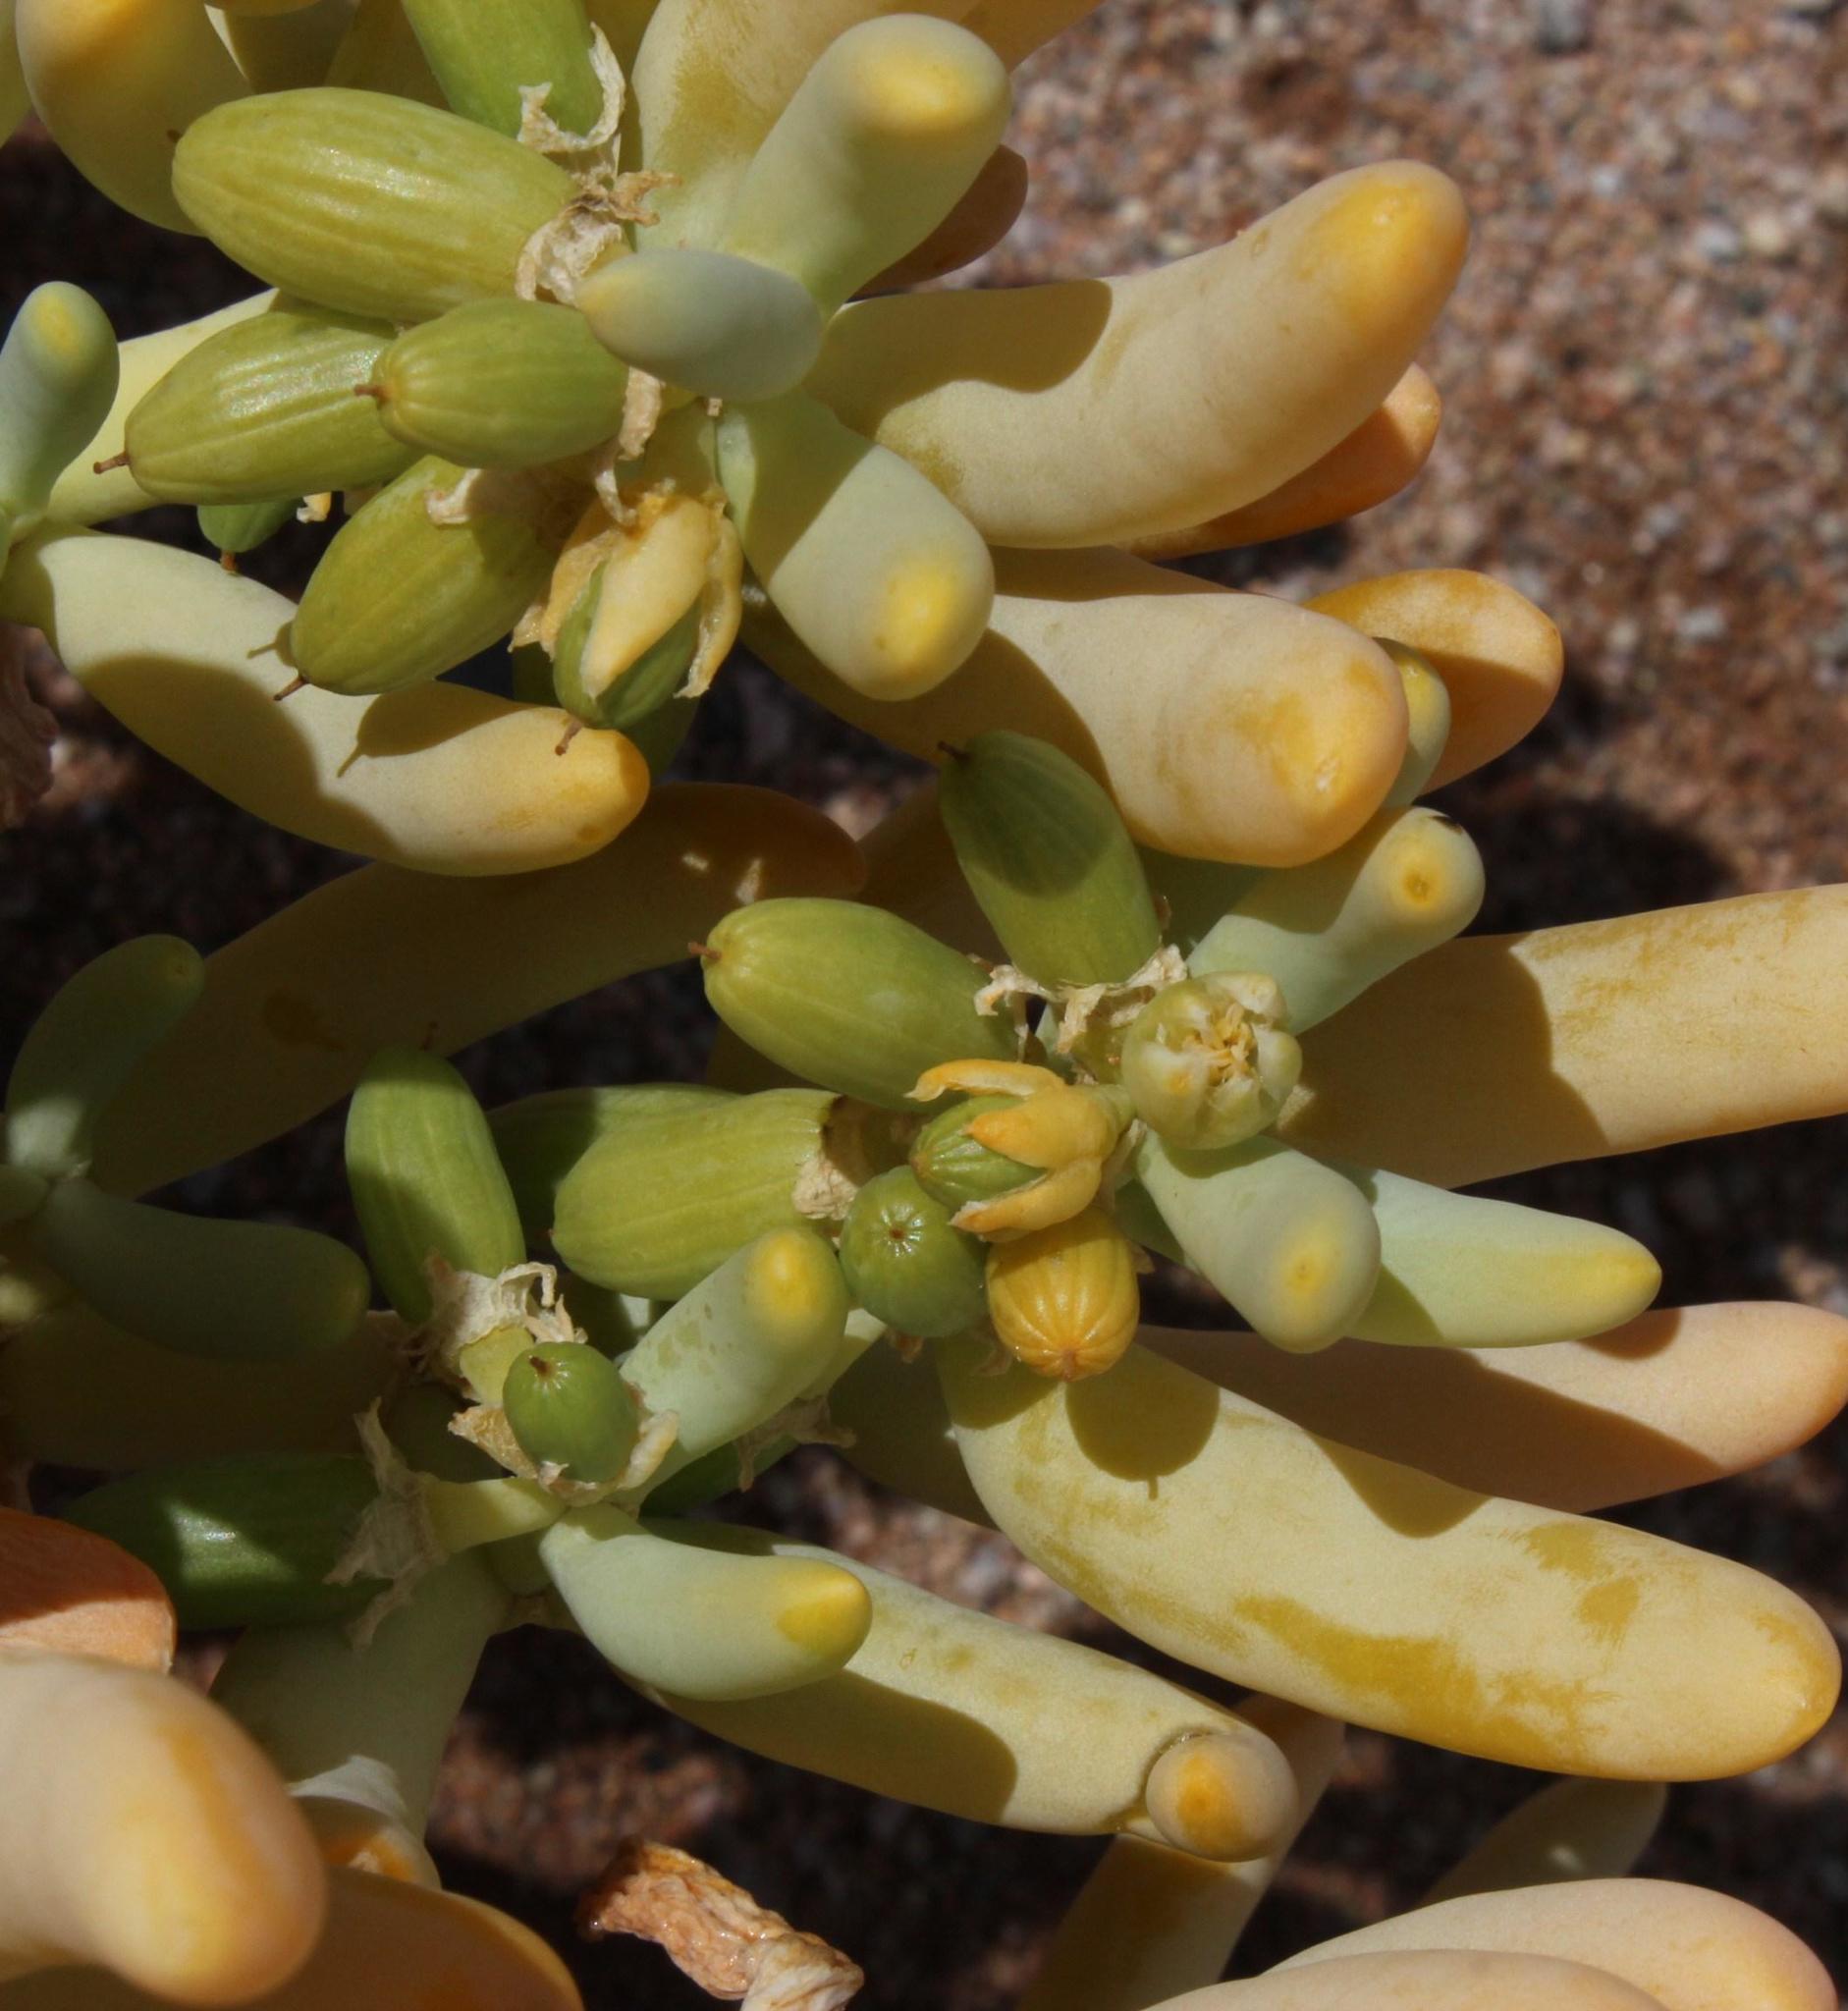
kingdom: Plantae
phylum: Tracheophyta
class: Magnoliopsida
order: Zygophyllales
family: Zygophyllaceae
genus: Augea
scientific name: Augea capensis
